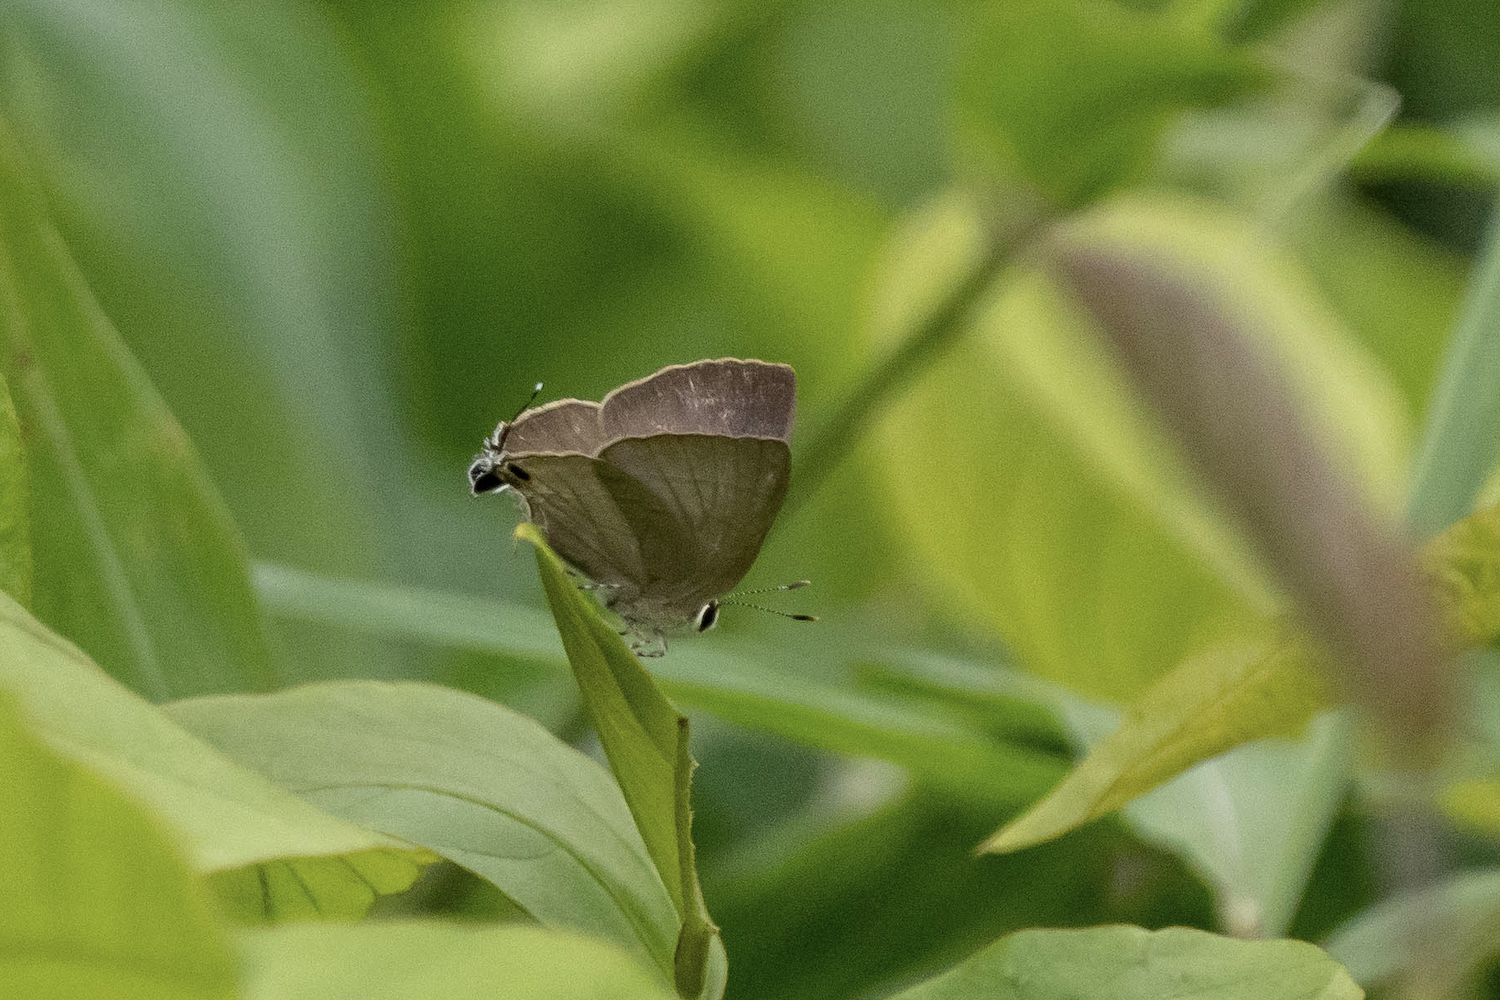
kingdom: Animalia
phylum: Arthropoda
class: Insecta
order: Lepidoptera
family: Lycaenidae
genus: Rapala
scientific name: Rapala manea
